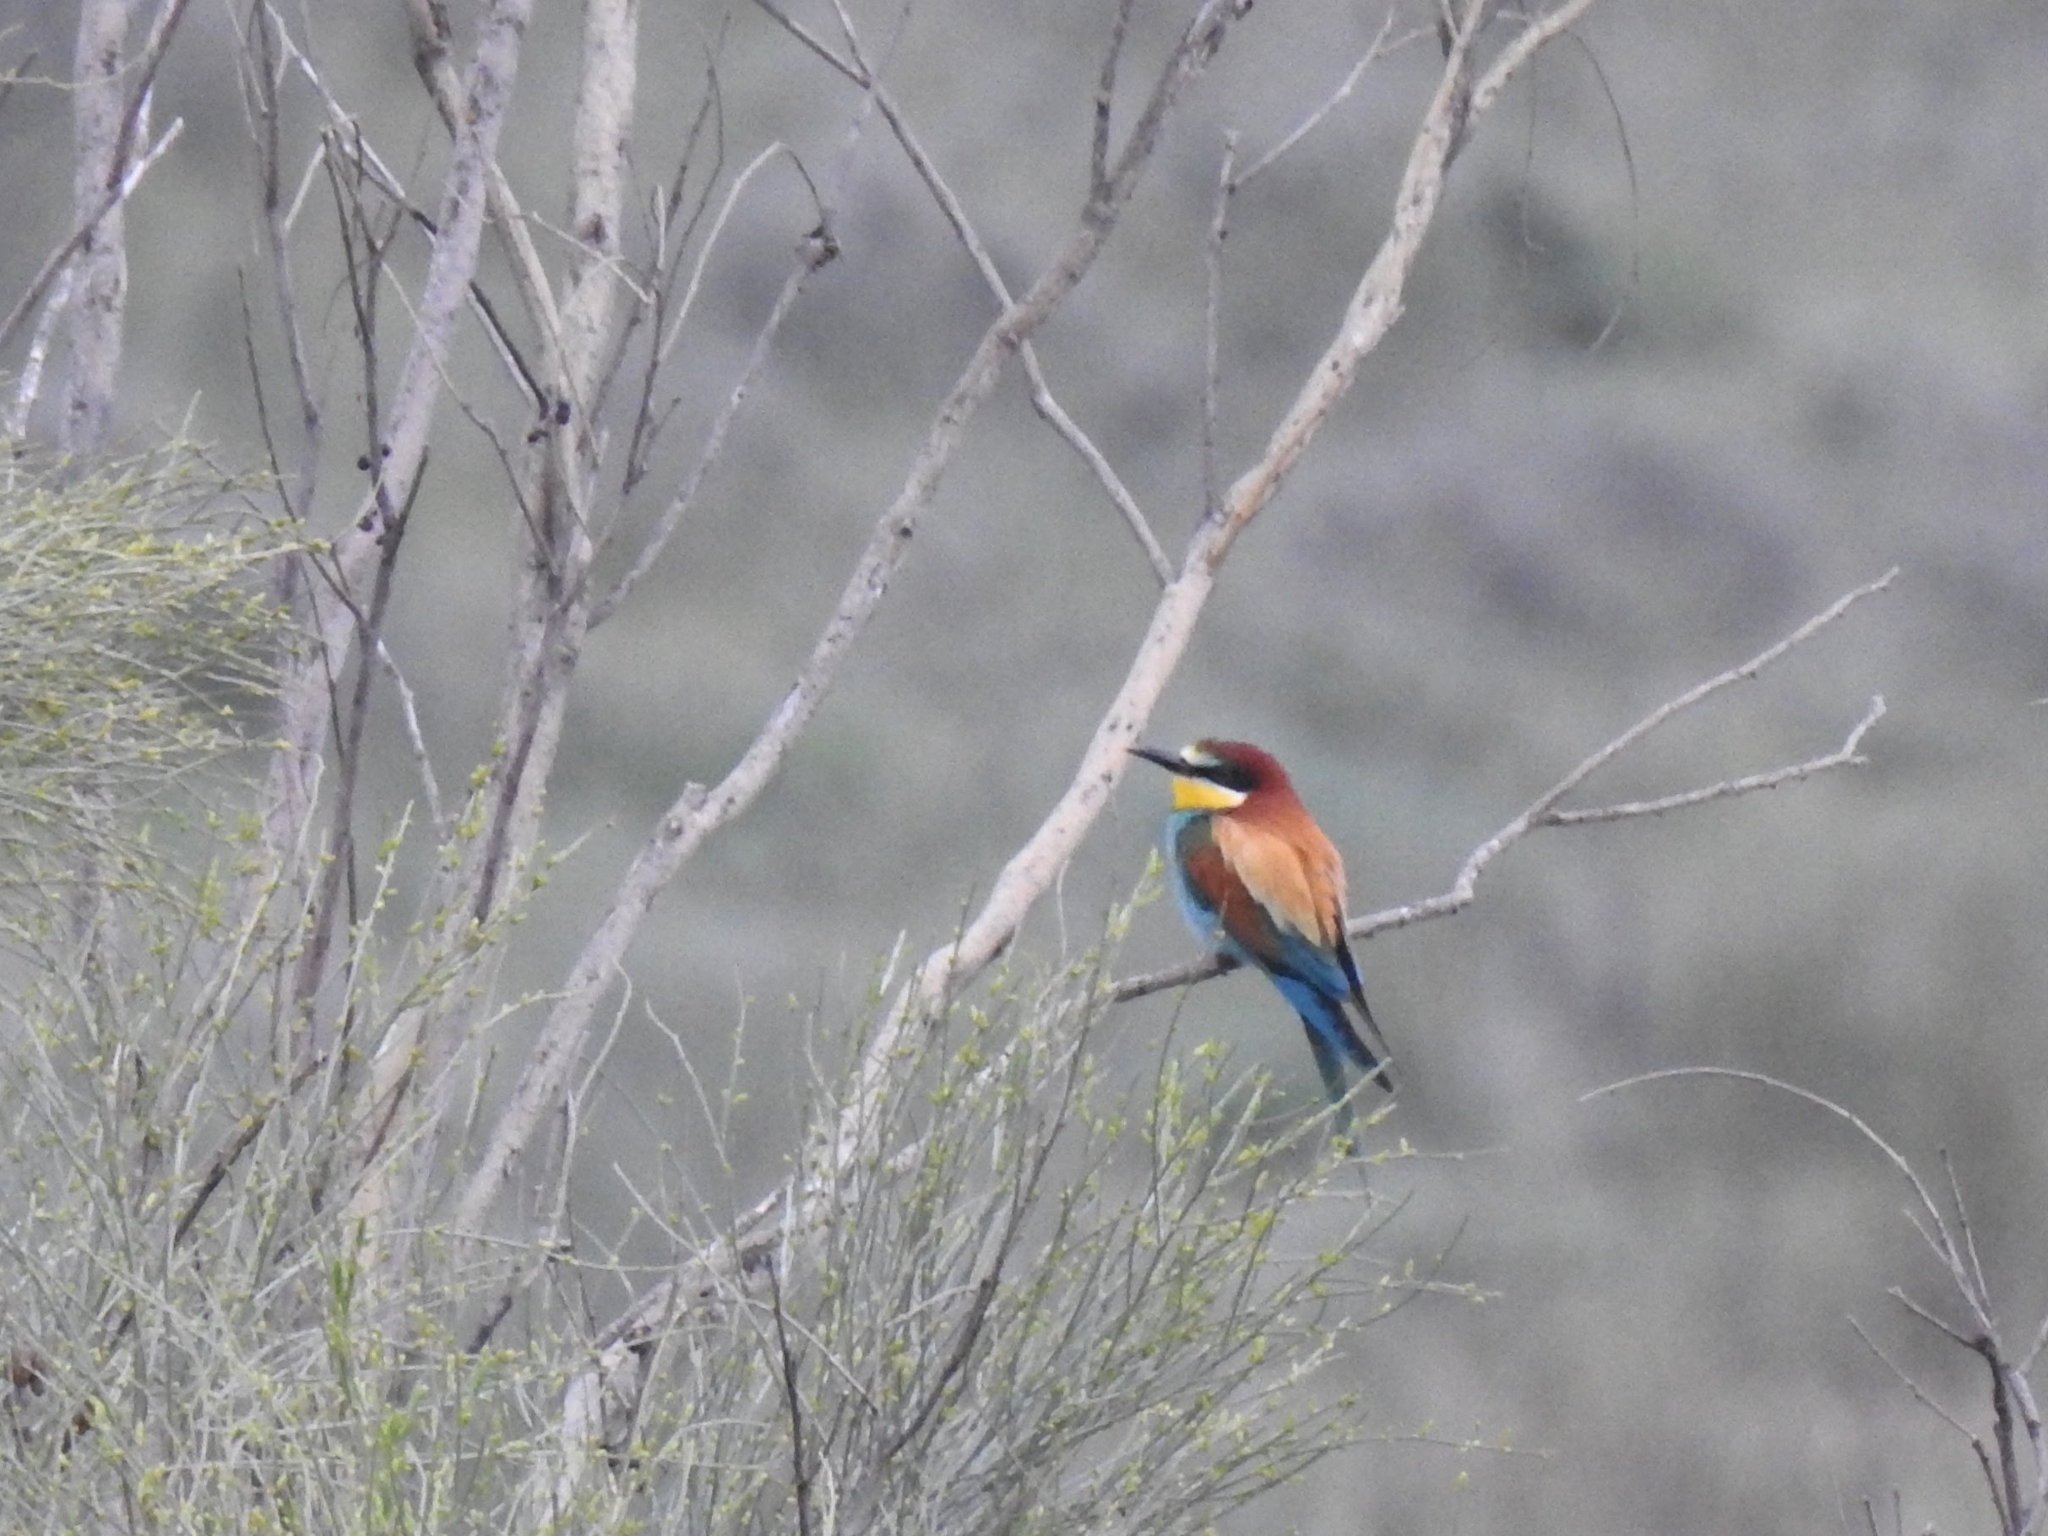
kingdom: Animalia
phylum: Chordata
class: Aves
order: Coraciiformes
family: Meropidae
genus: Merops
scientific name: Merops apiaster
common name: European bee-eater
